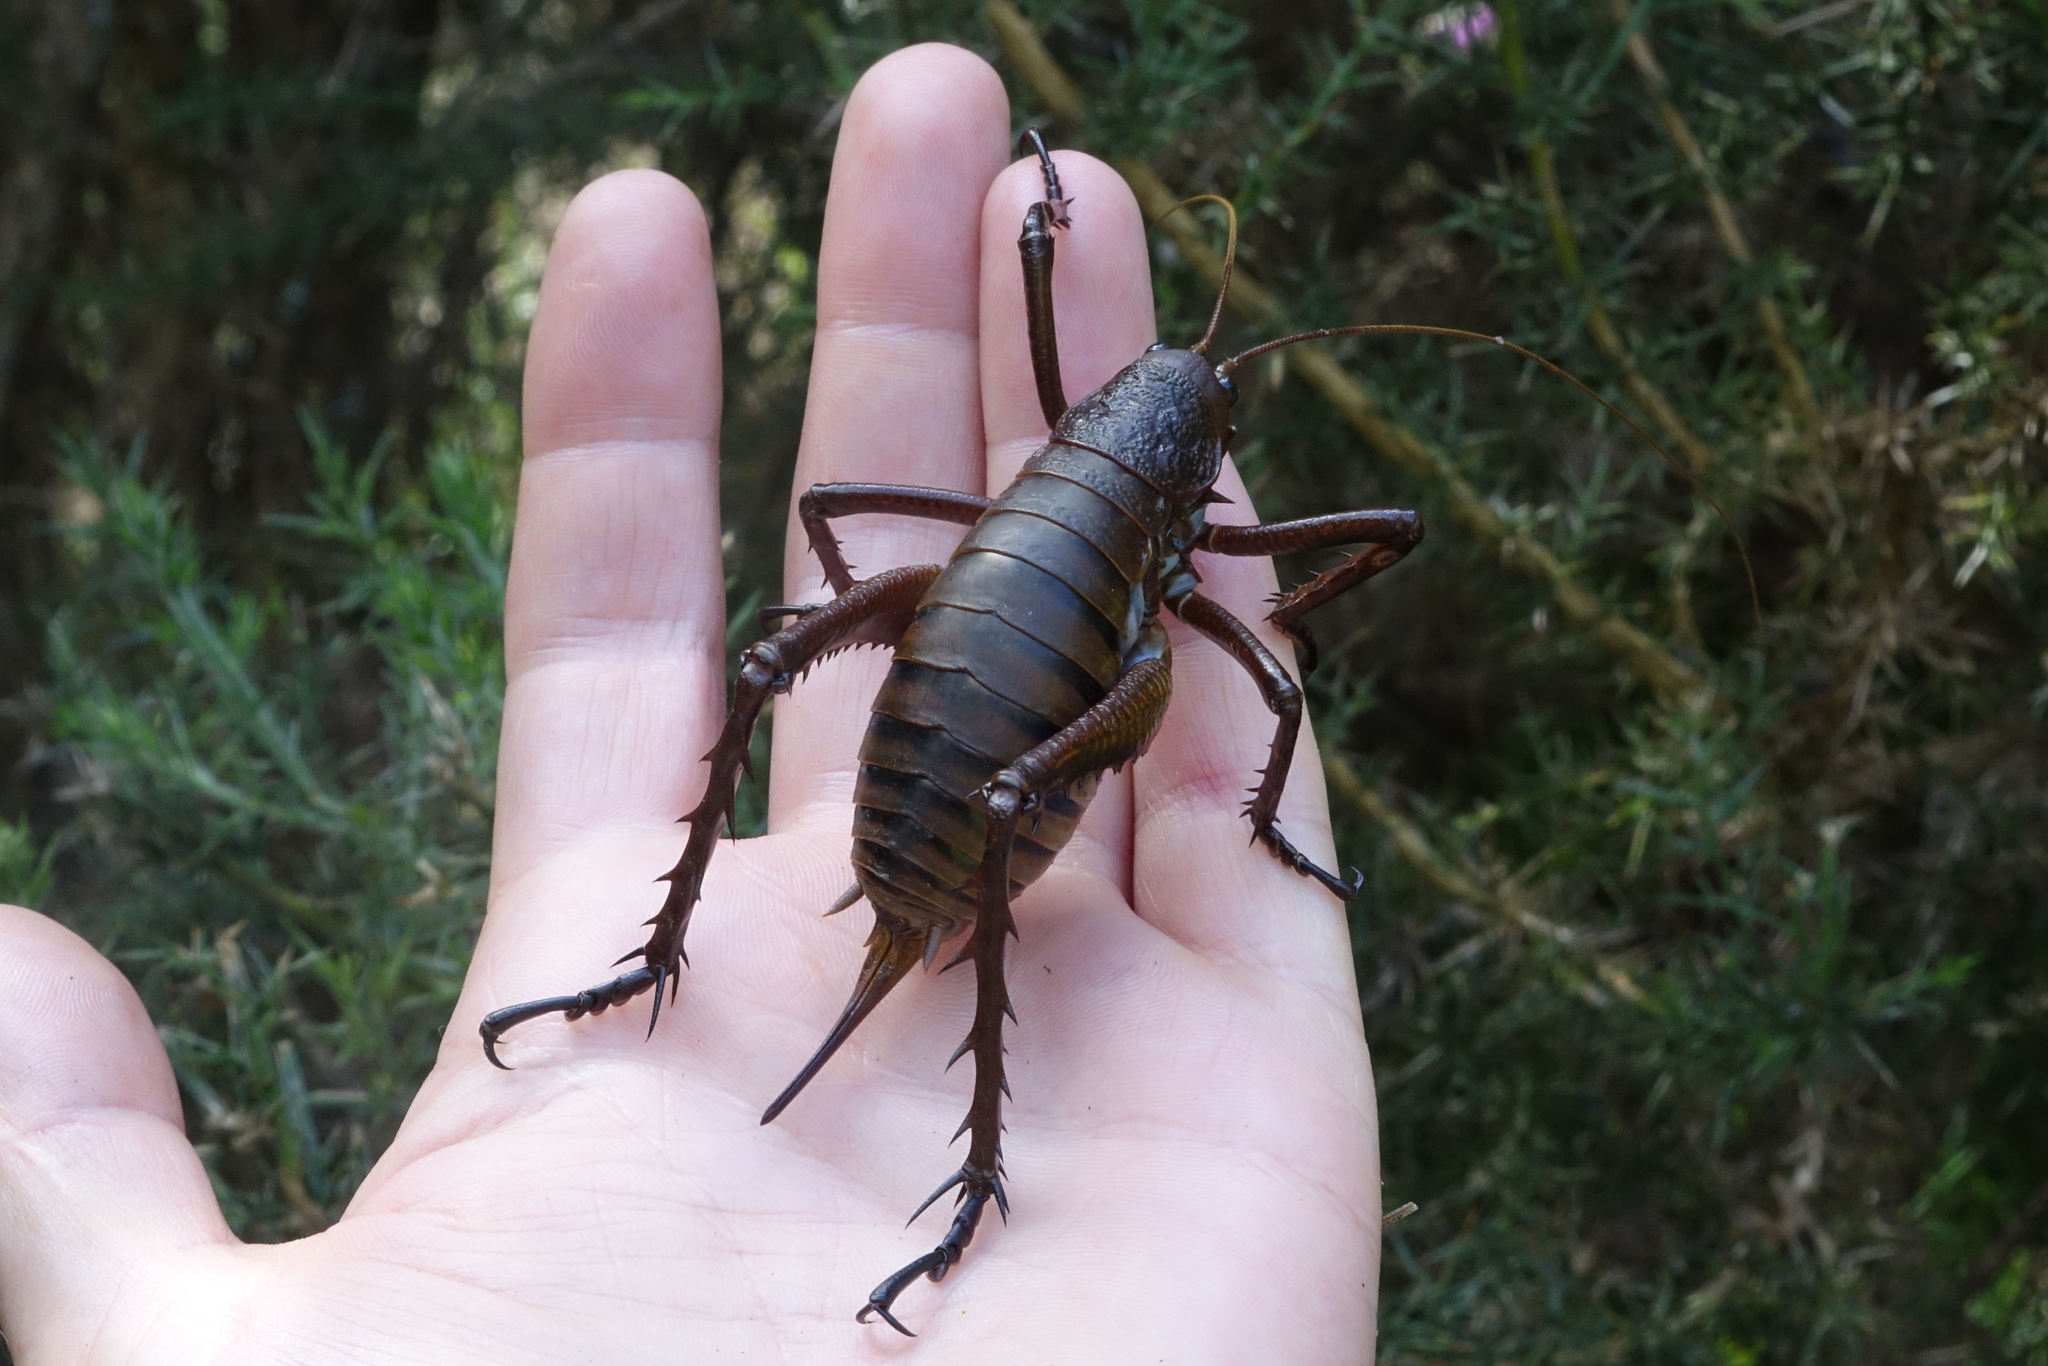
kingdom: Animalia
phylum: Arthropoda
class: Insecta
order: Orthoptera
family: Anostostomatidae
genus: Deinacrida
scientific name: Deinacrida mahoenui
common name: Mahoenui giant weta
